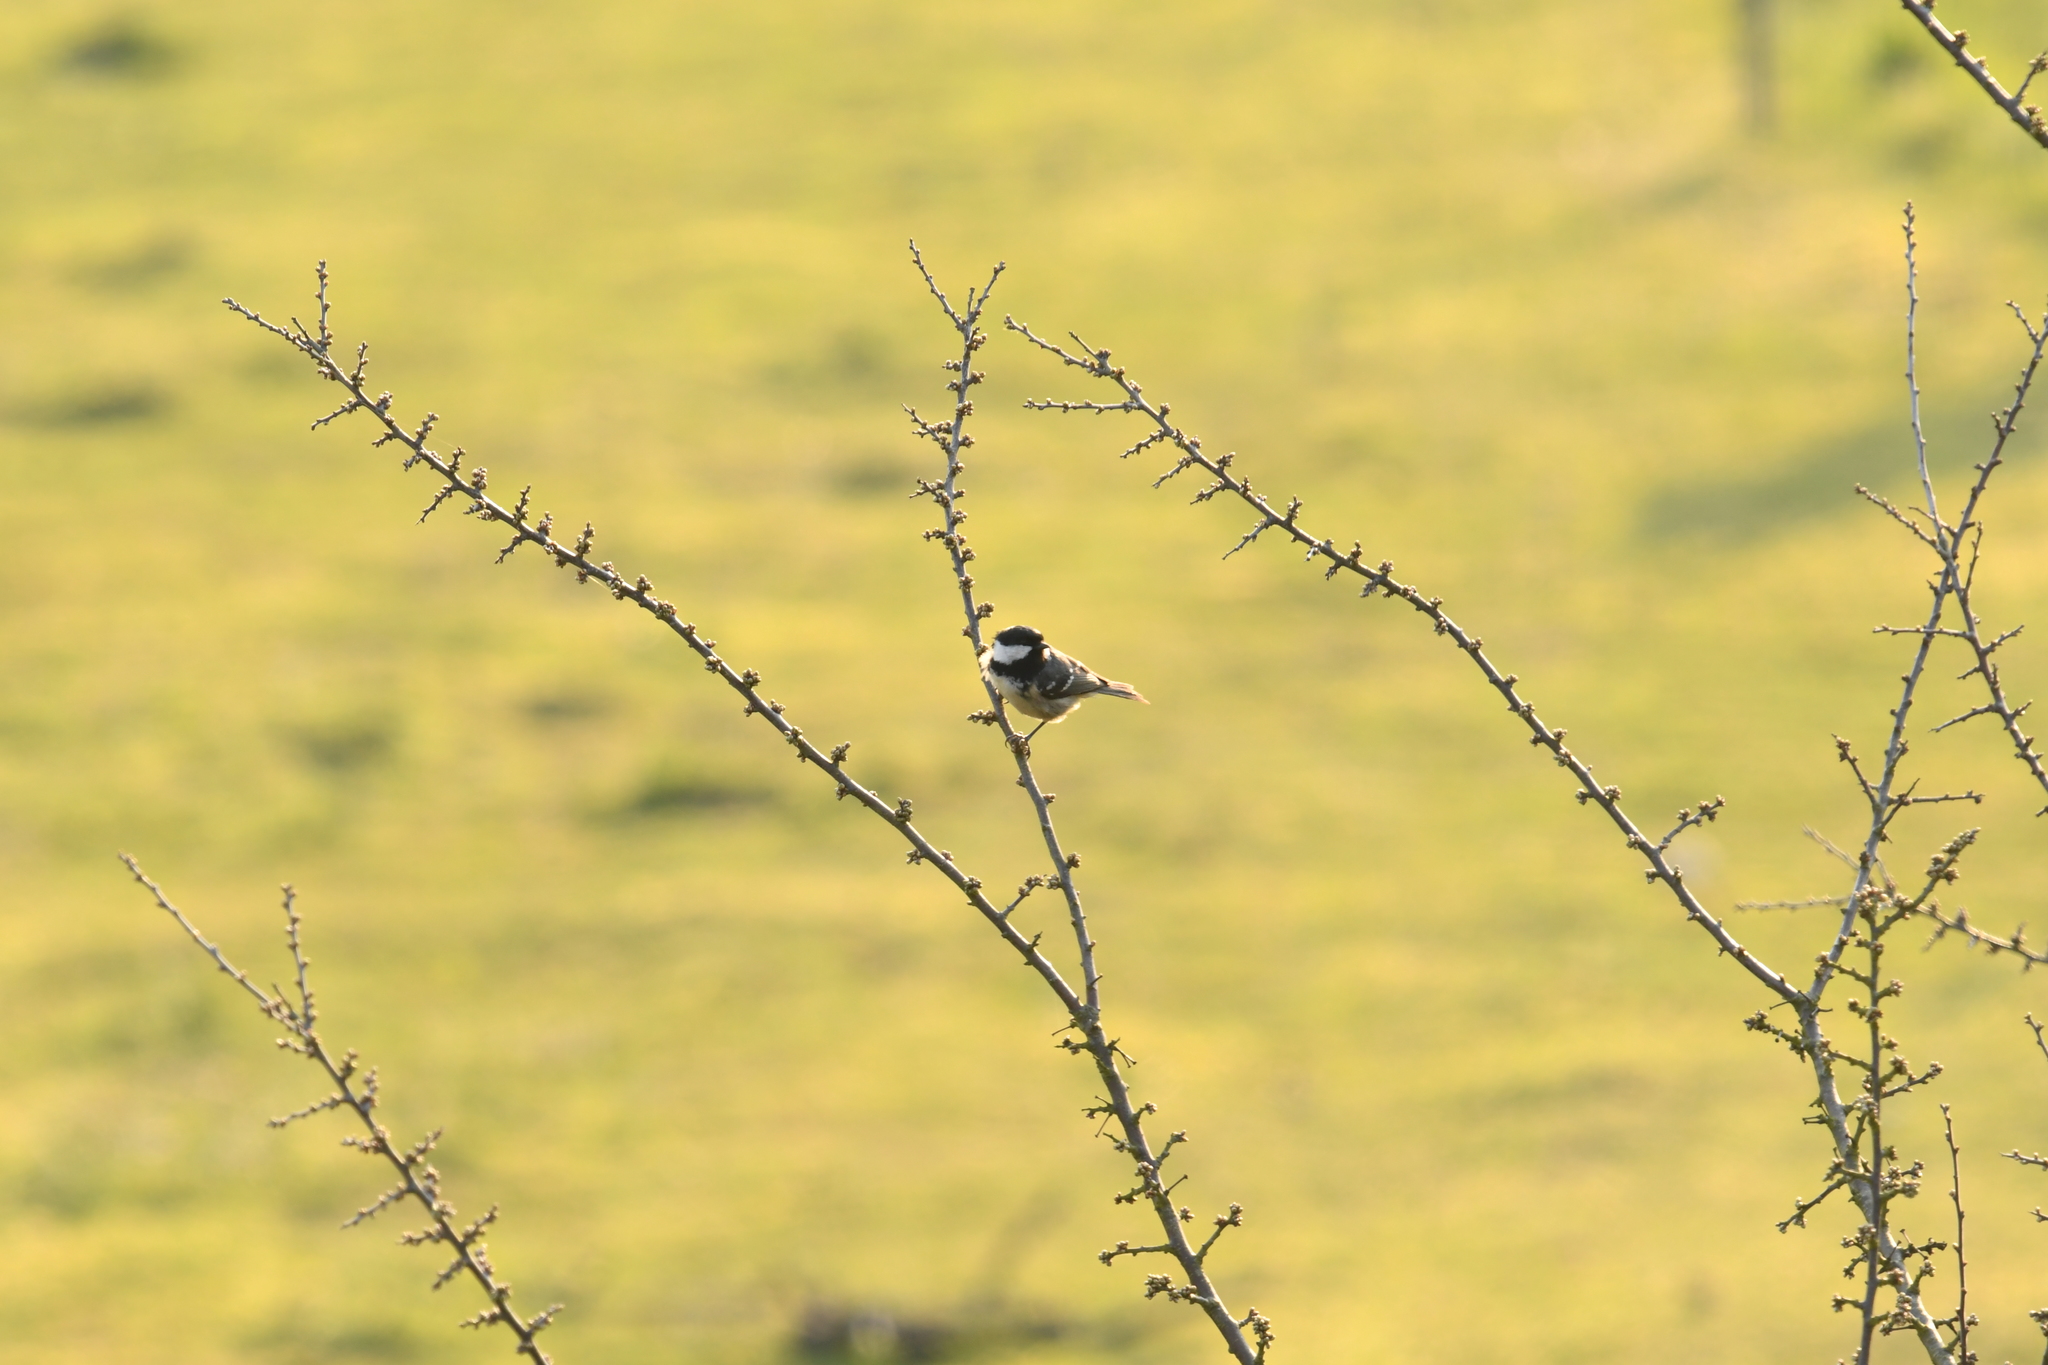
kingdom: Animalia
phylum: Chordata
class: Aves
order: Passeriformes
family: Paridae
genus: Periparus
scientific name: Periparus ater
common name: Coal tit
